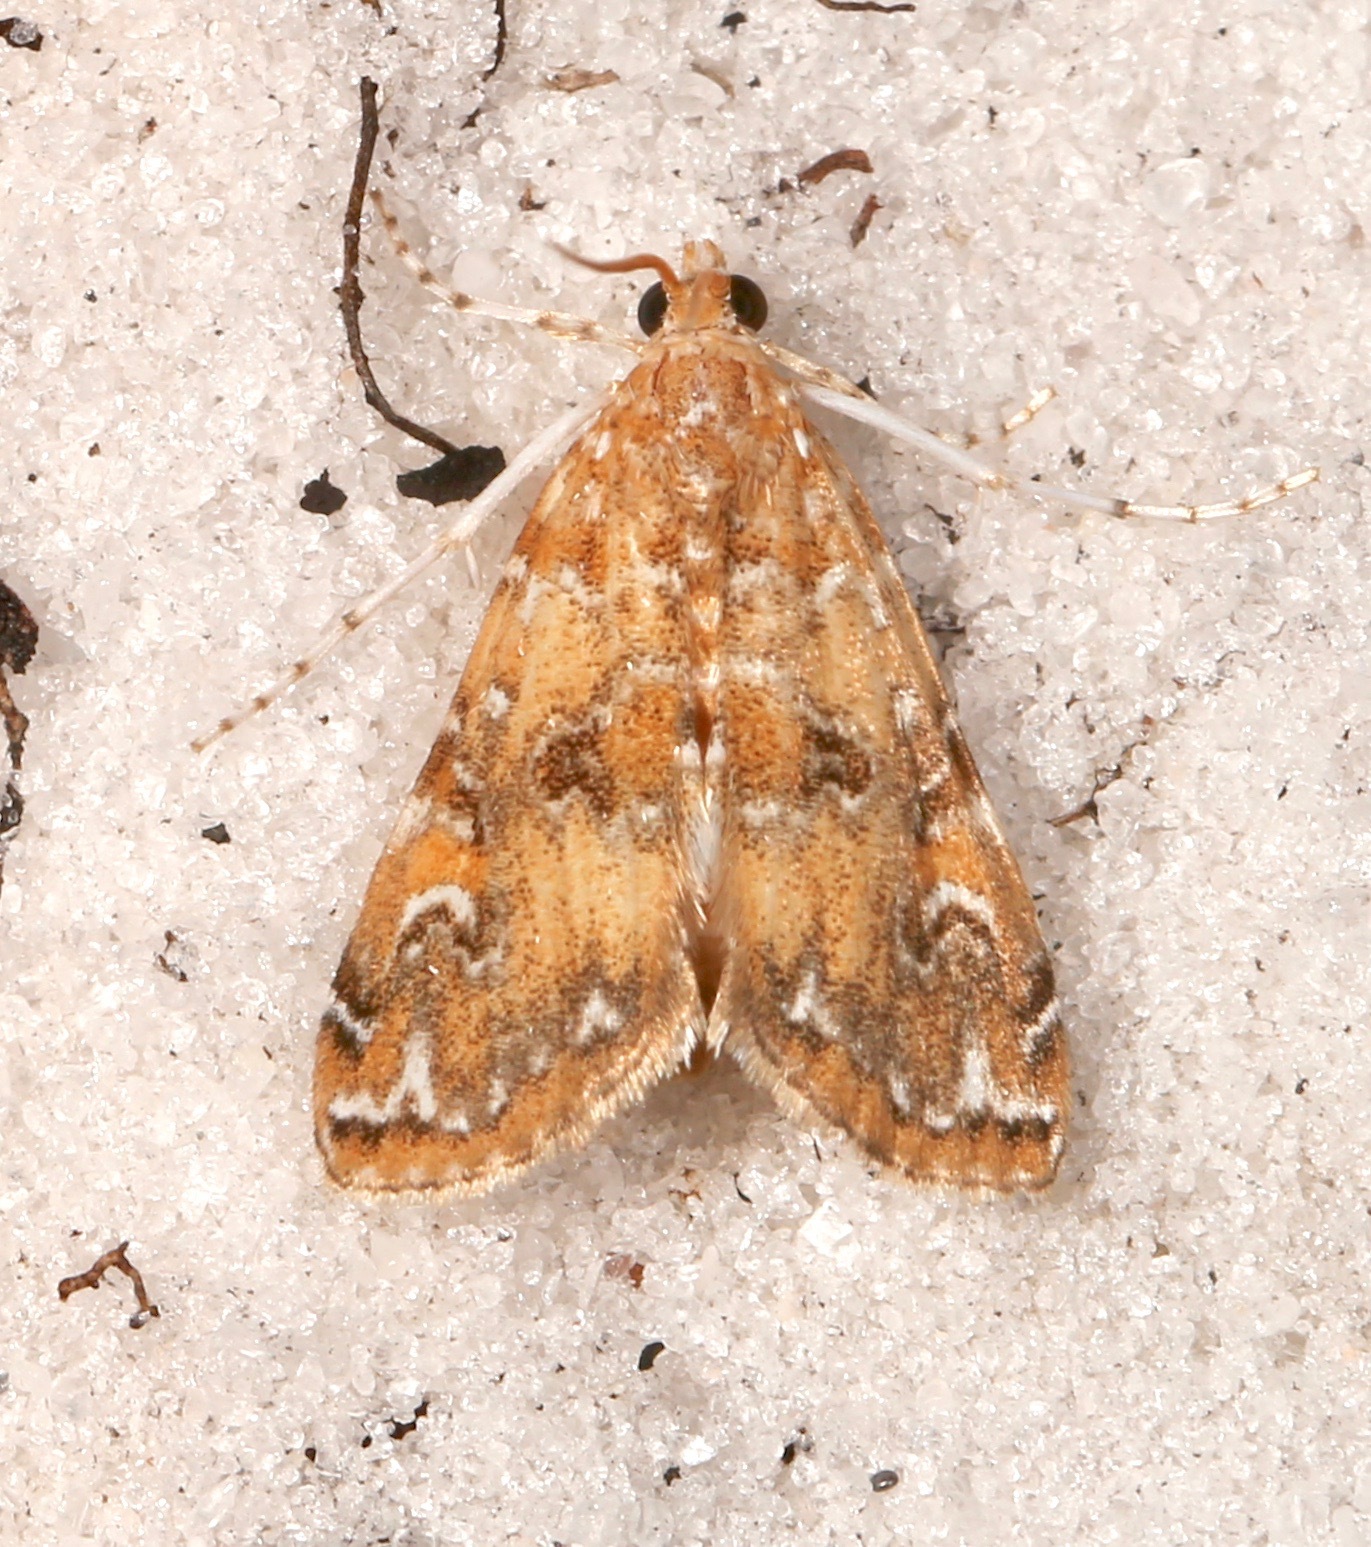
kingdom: Animalia
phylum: Arthropoda
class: Insecta
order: Lepidoptera
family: Crambidae
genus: Elophila
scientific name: Elophila gyralis
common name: Waterlily borer moth
